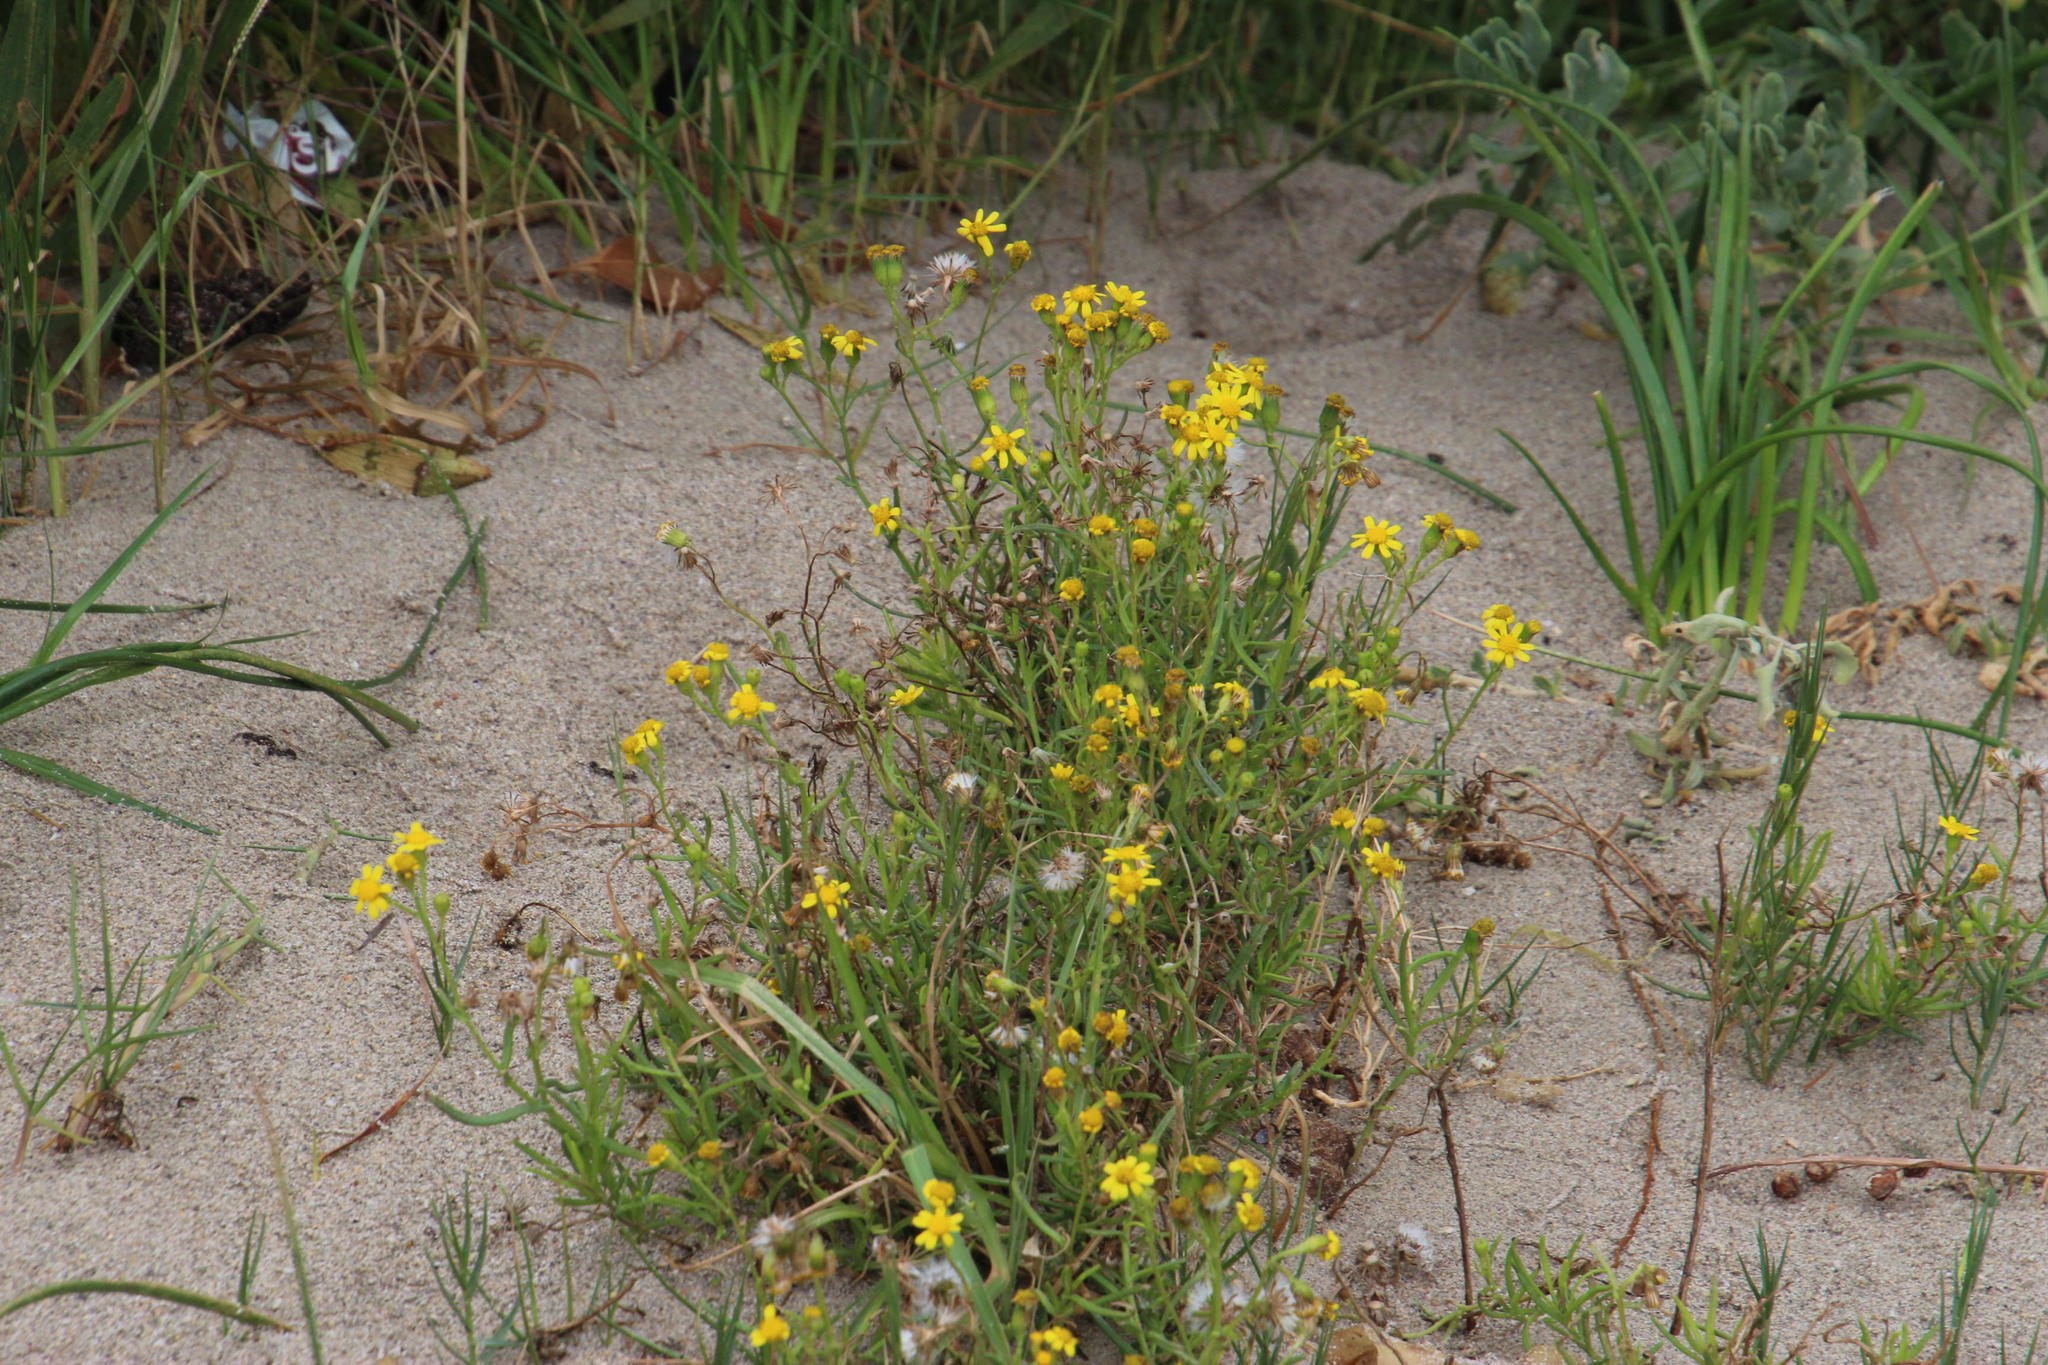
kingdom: Plantae
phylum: Tracheophyta
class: Magnoliopsida
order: Asterales
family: Asteraceae
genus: Senecio
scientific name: Senecio inaequidens
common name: Narrow-leaved ragwort
